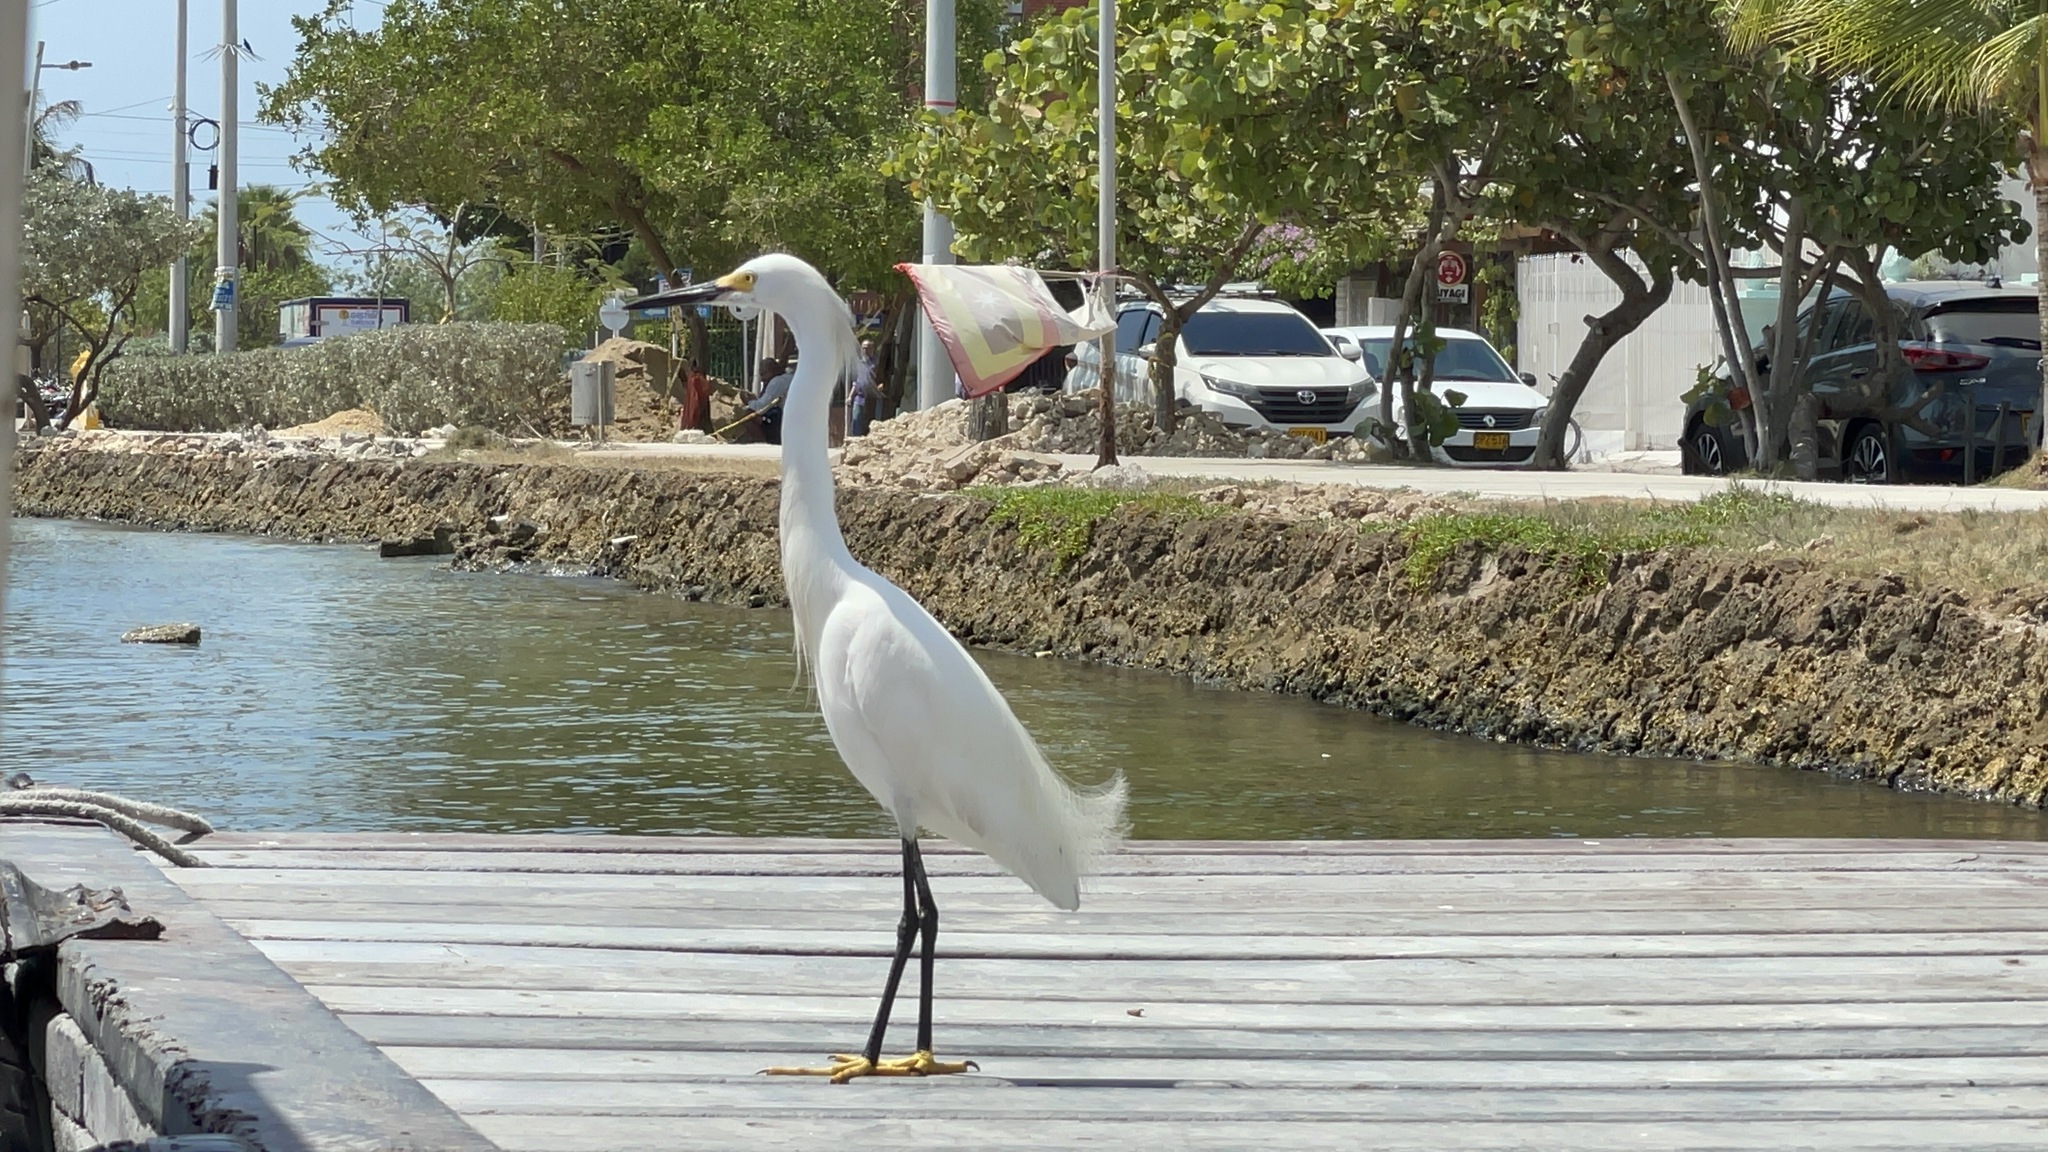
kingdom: Animalia
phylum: Chordata
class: Aves
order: Pelecaniformes
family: Ardeidae
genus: Egretta
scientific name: Egretta thula
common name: Snowy egret
